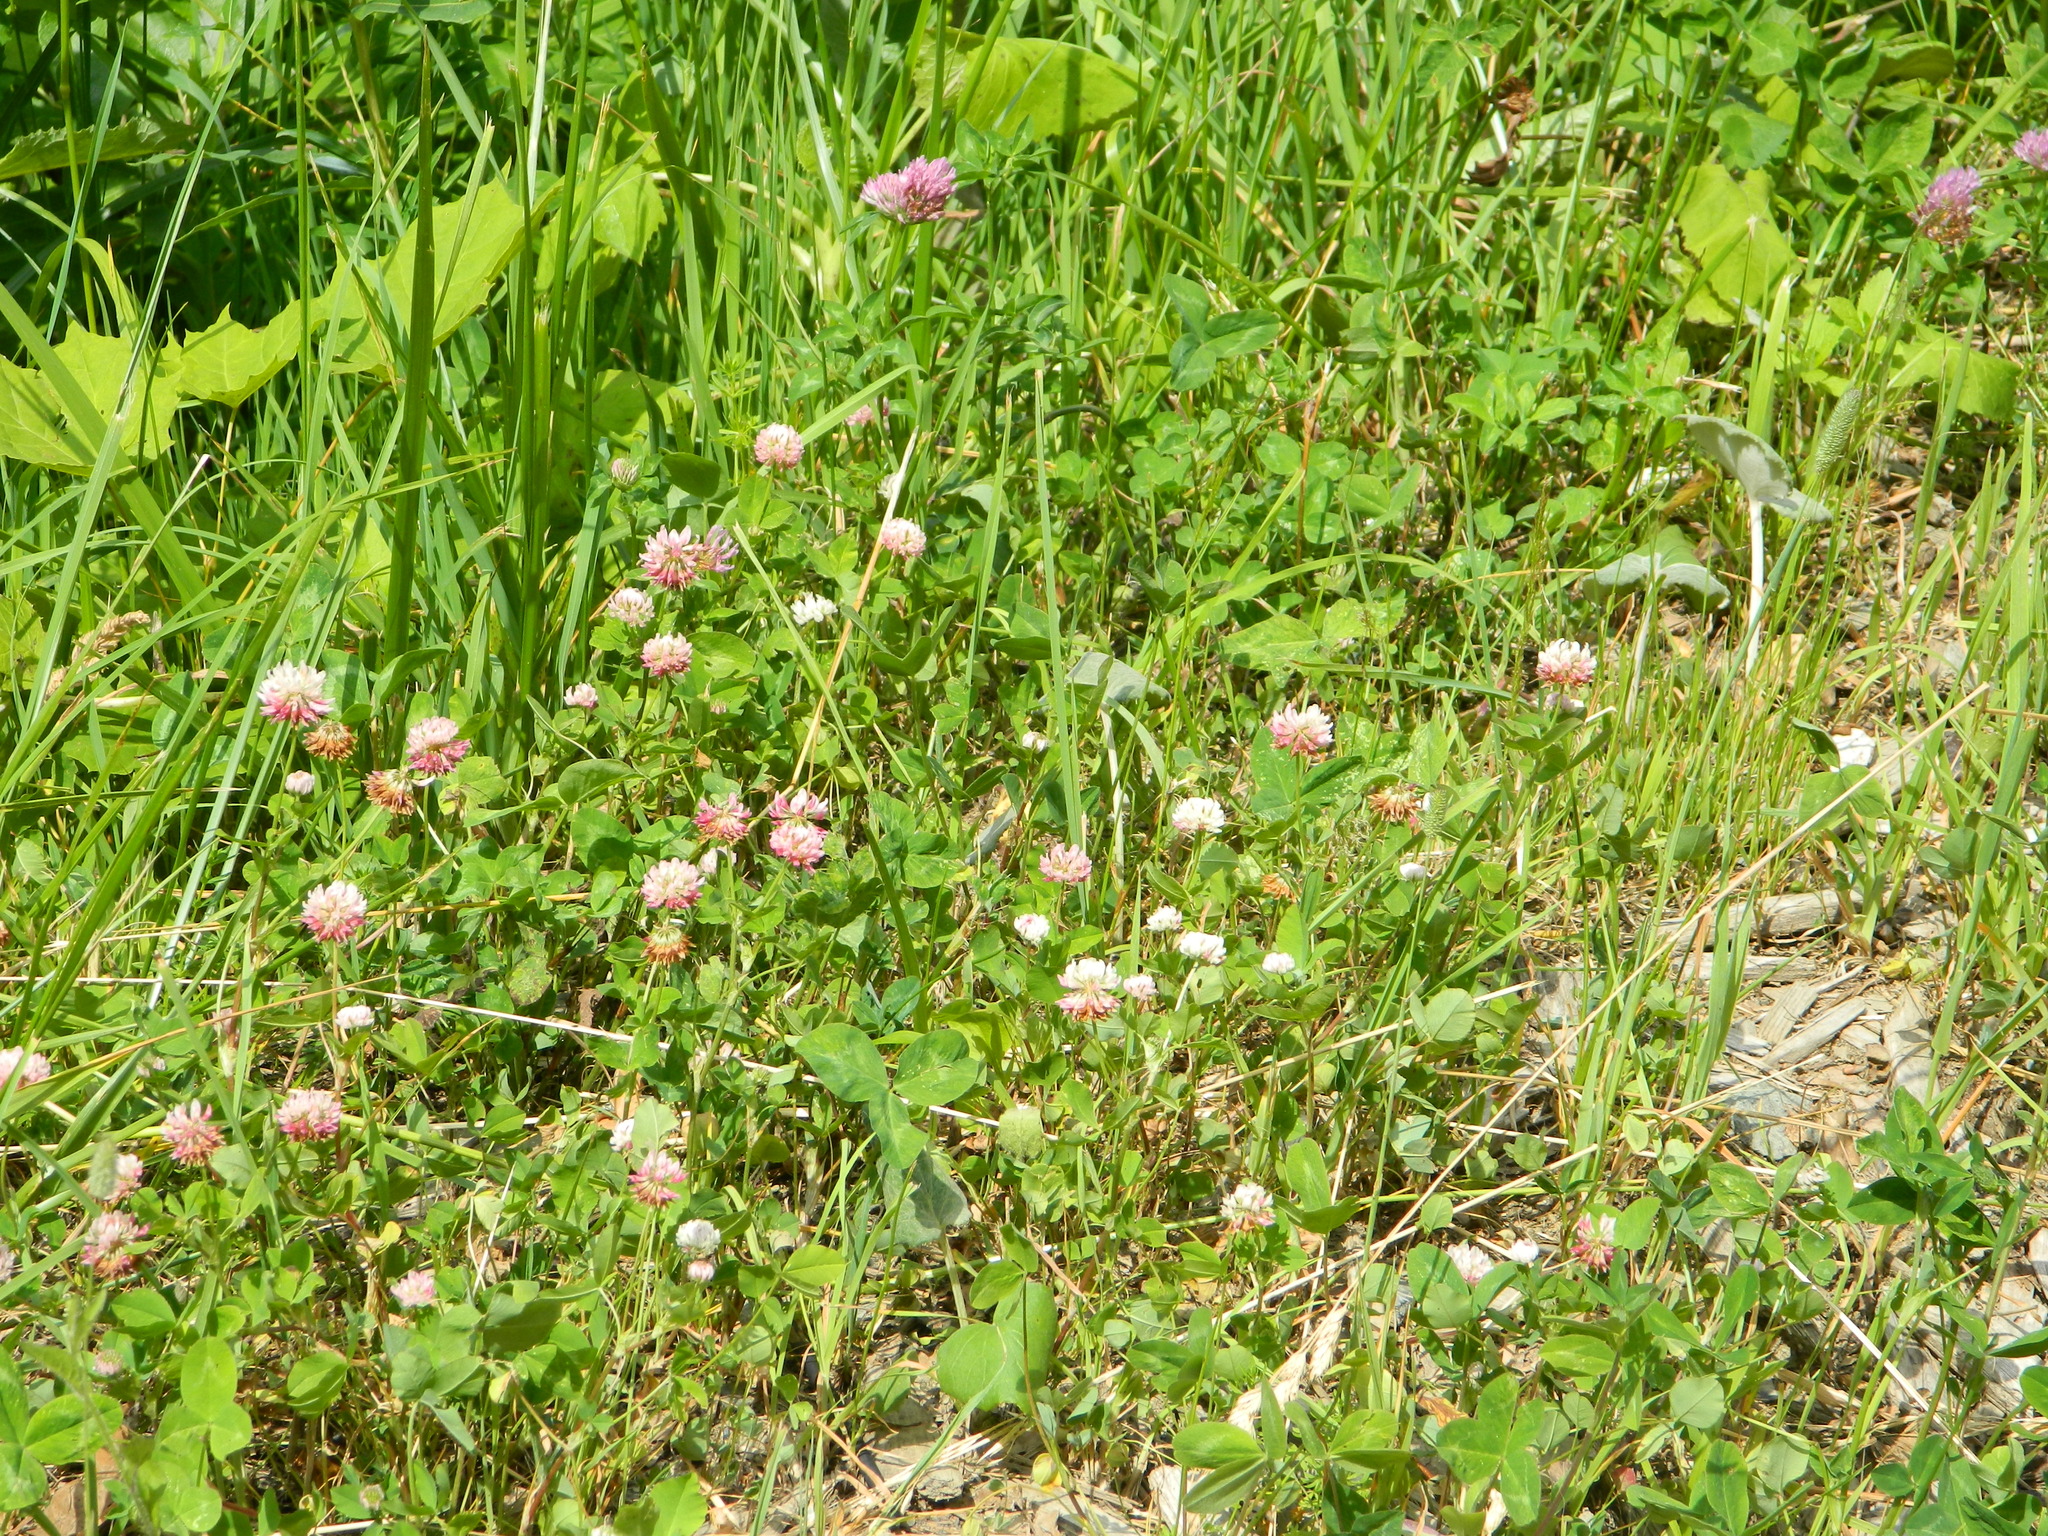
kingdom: Plantae
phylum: Tracheophyta
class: Magnoliopsida
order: Fabales
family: Fabaceae
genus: Trifolium
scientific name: Trifolium hybridum
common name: Alsike clover
